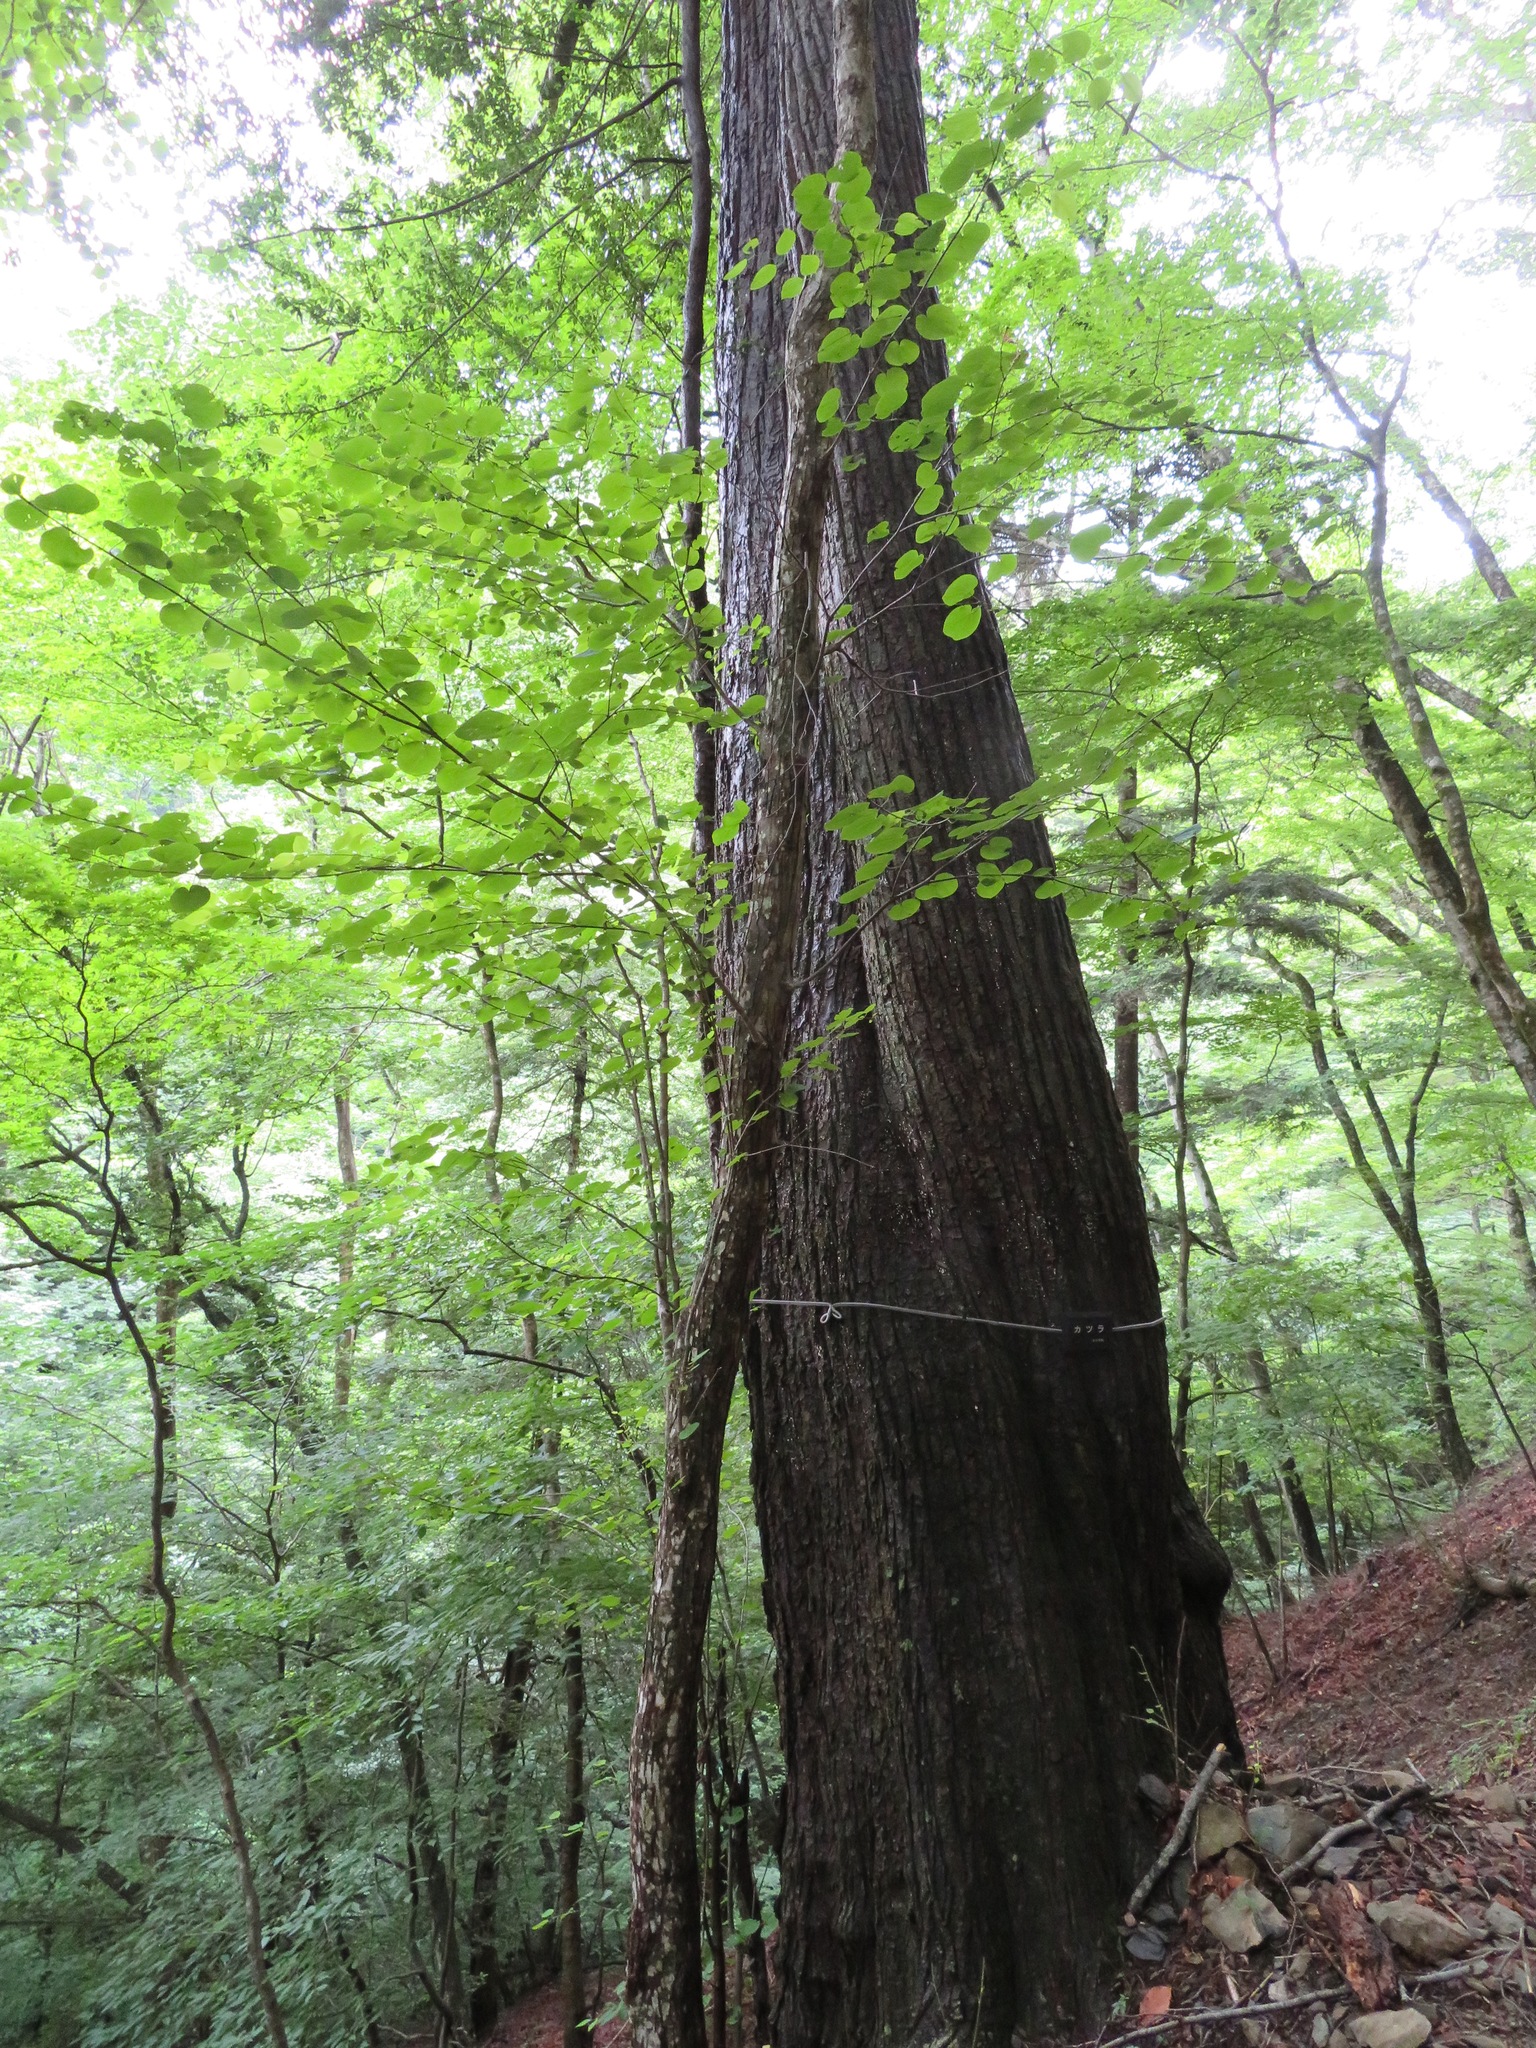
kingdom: Plantae
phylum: Tracheophyta
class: Magnoliopsida
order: Saxifragales
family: Cercidiphyllaceae
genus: Cercidiphyllum
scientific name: Cercidiphyllum japonicum
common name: Katsura tree
